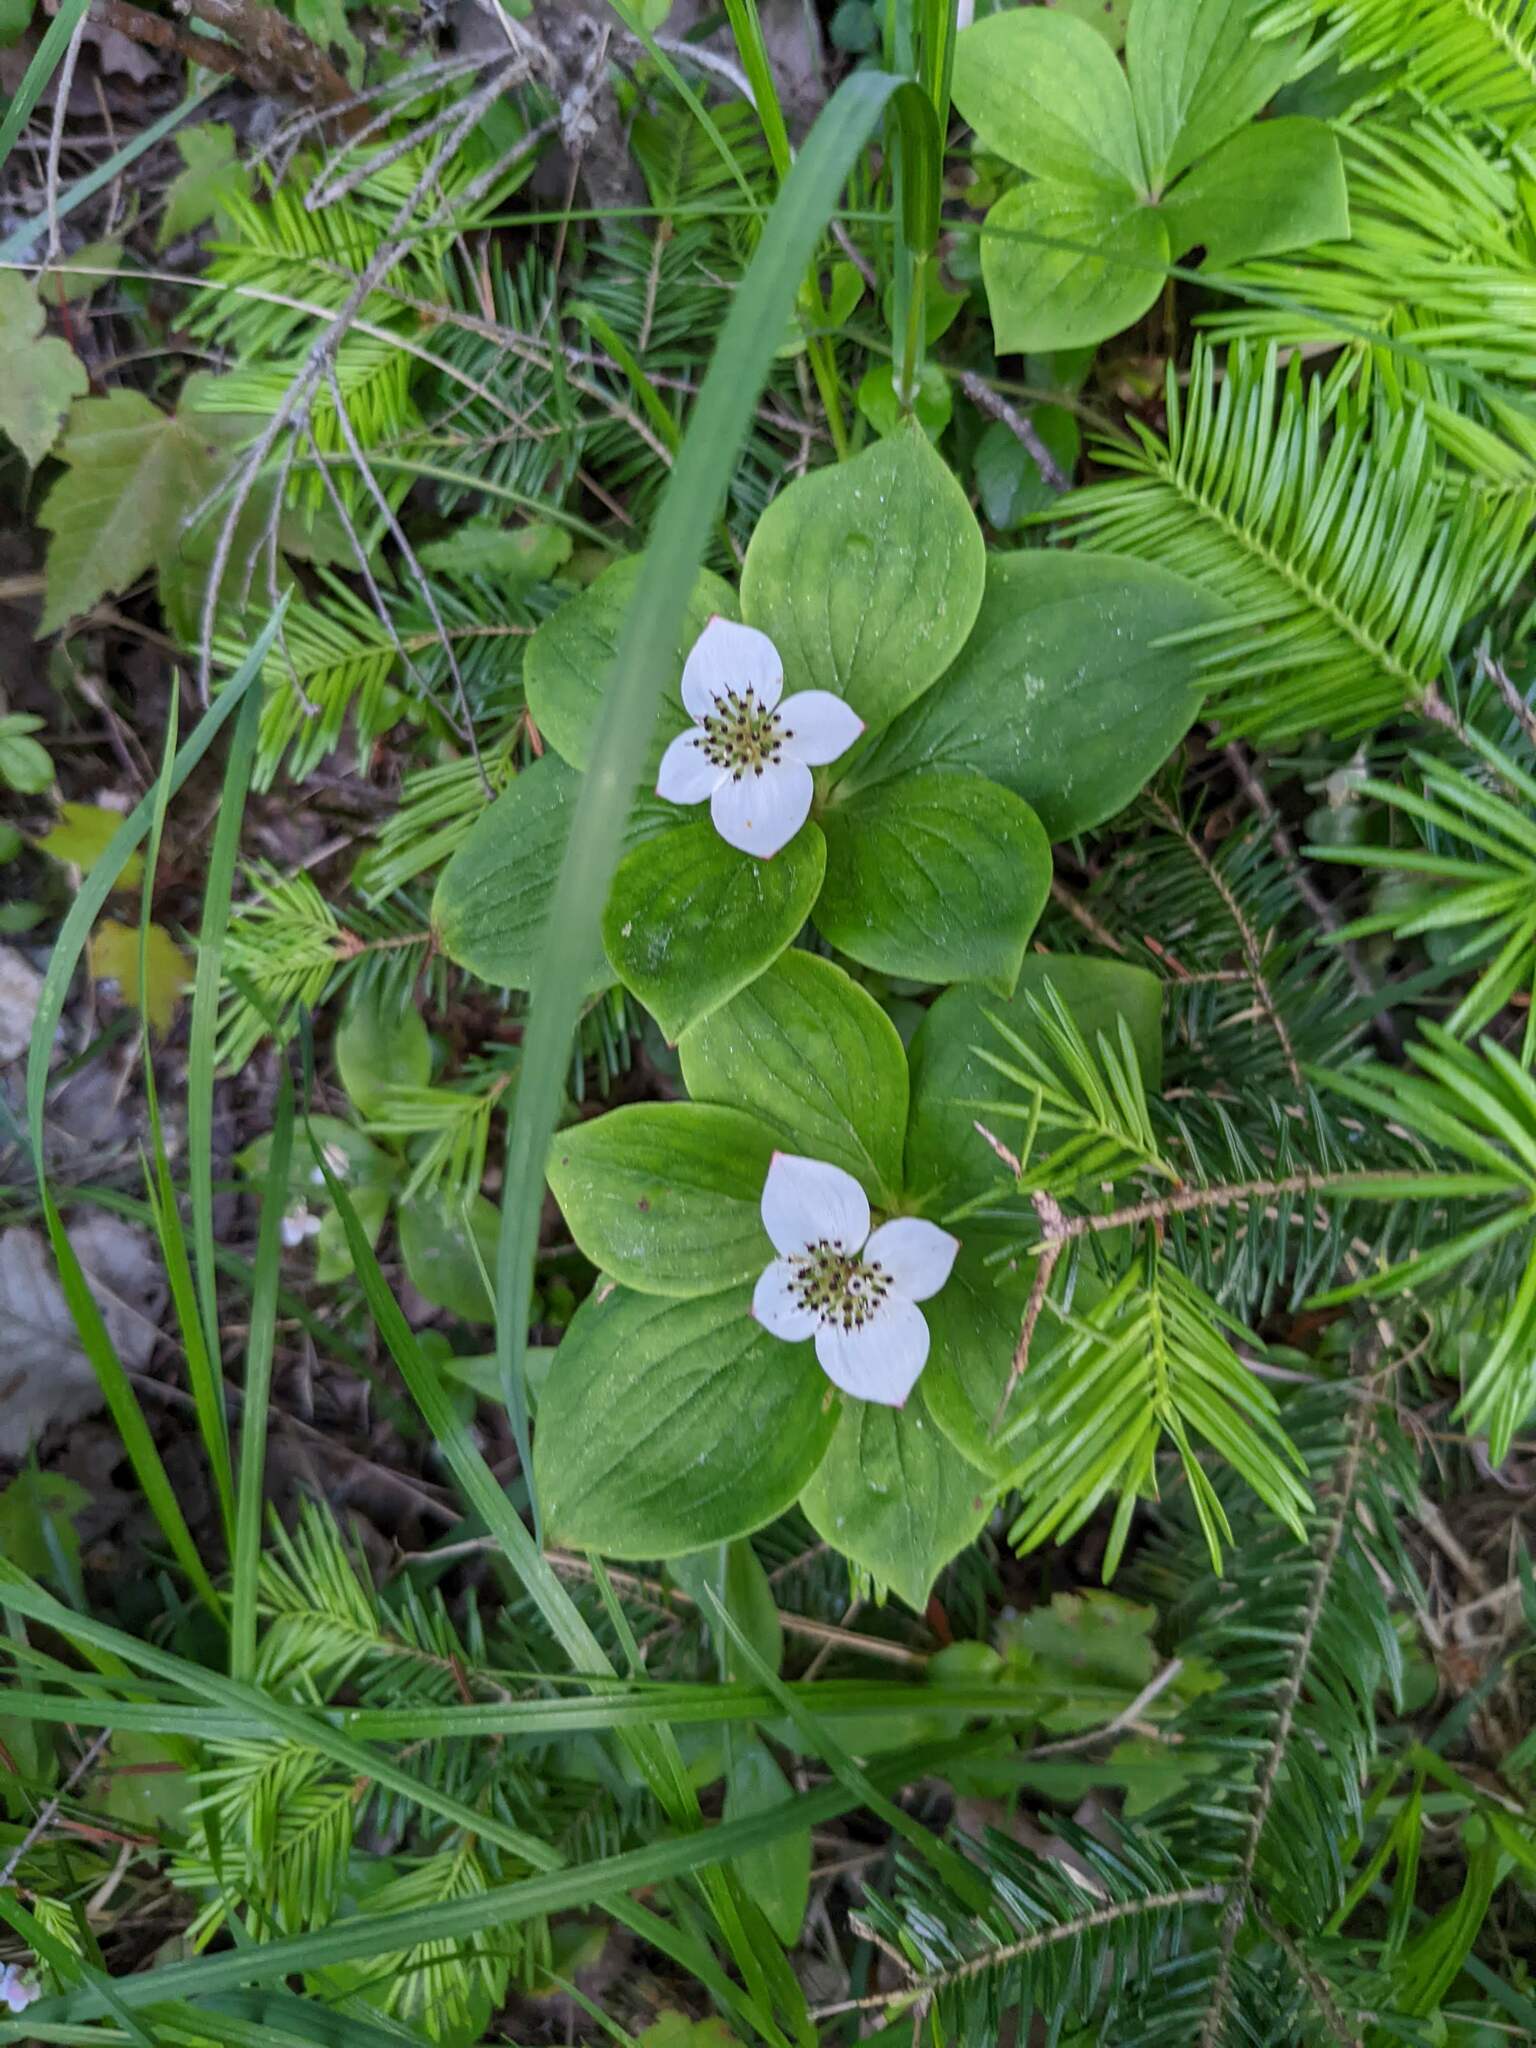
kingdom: Plantae
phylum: Tracheophyta
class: Magnoliopsida
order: Cornales
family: Cornaceae
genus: Cornus
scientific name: Cornus canadensis
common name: Creeping dogwood
